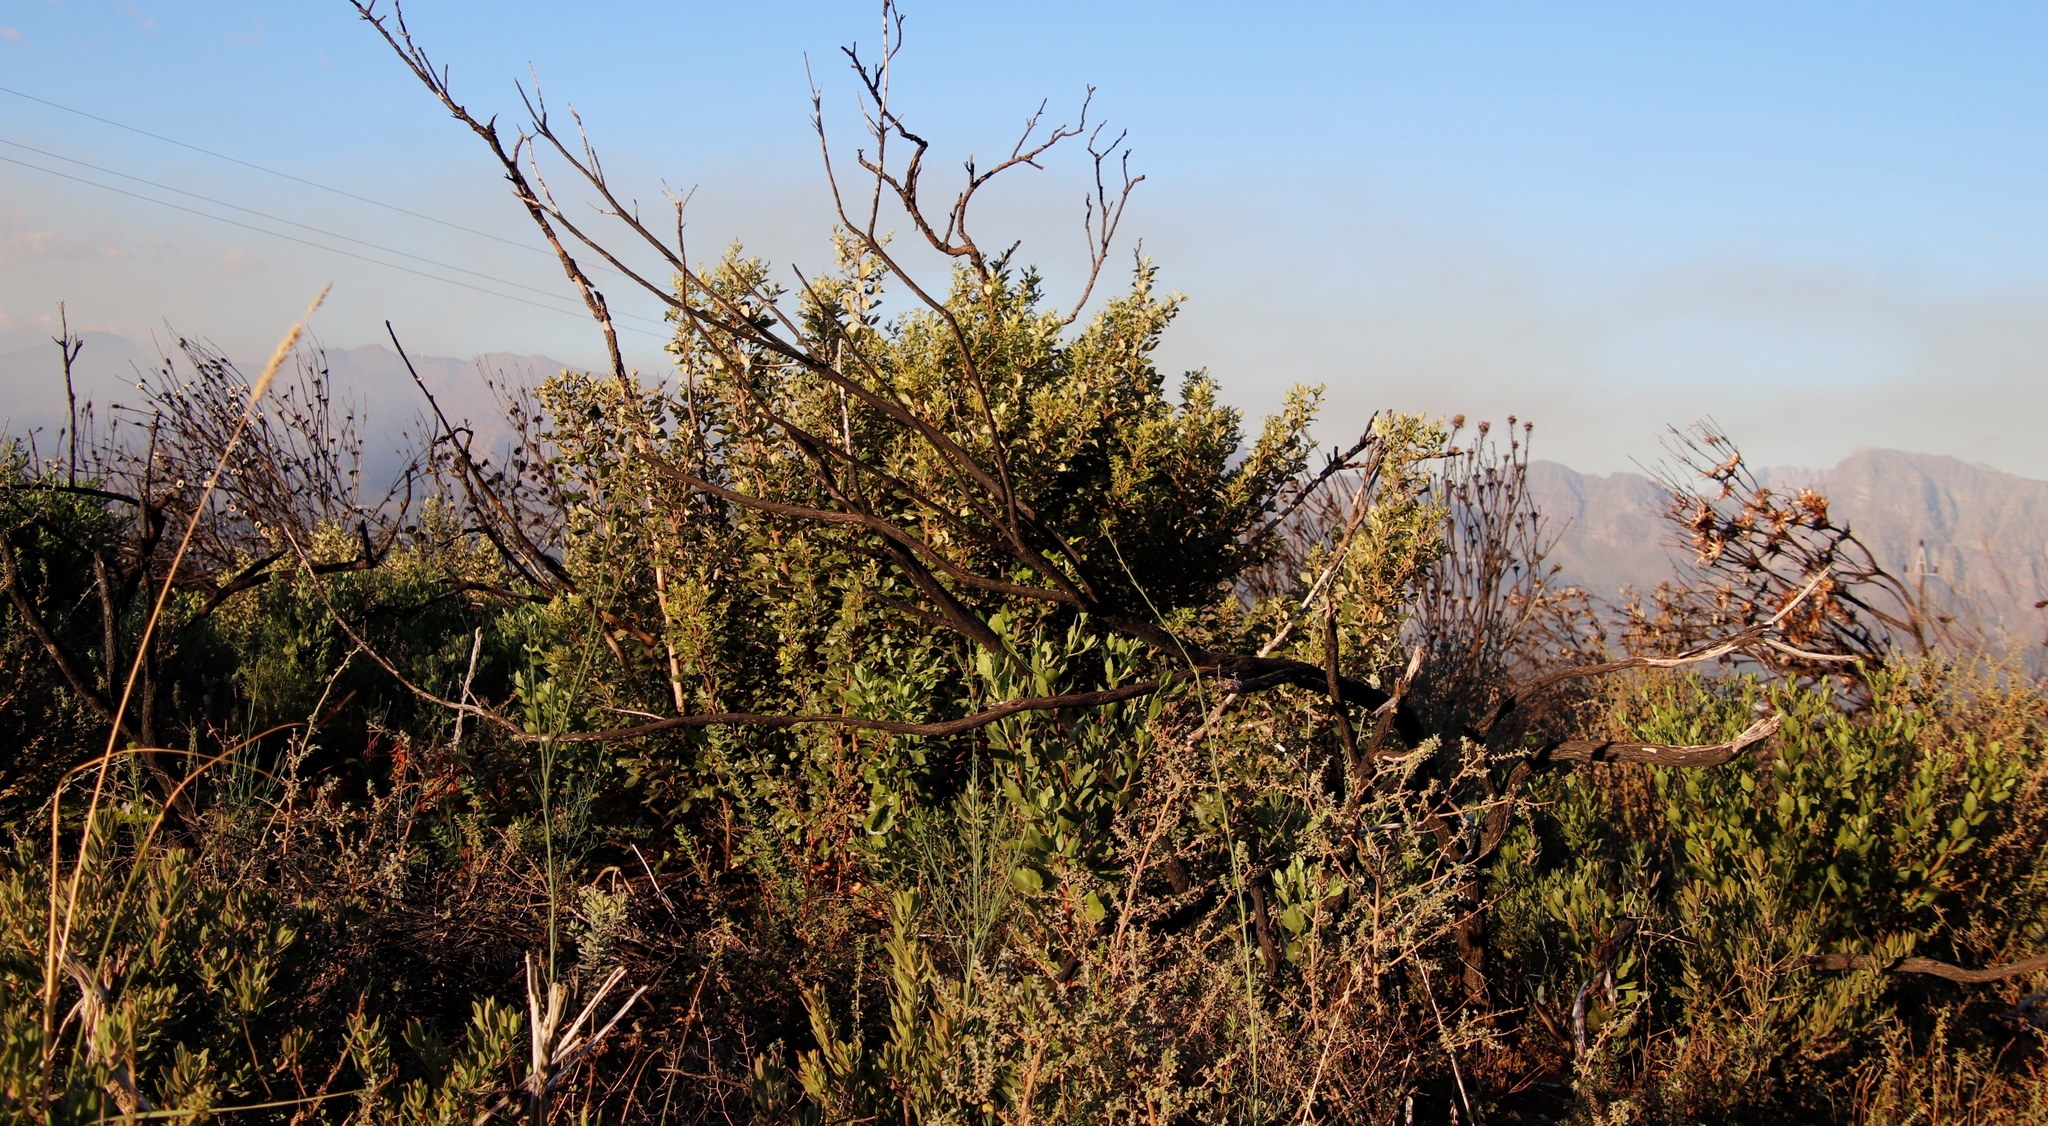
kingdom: Plantae
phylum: Tracheophyta
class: Magnoliopsida
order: Sapindales
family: Anacardiaceae
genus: Searsia
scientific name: Searsia tomentosa
